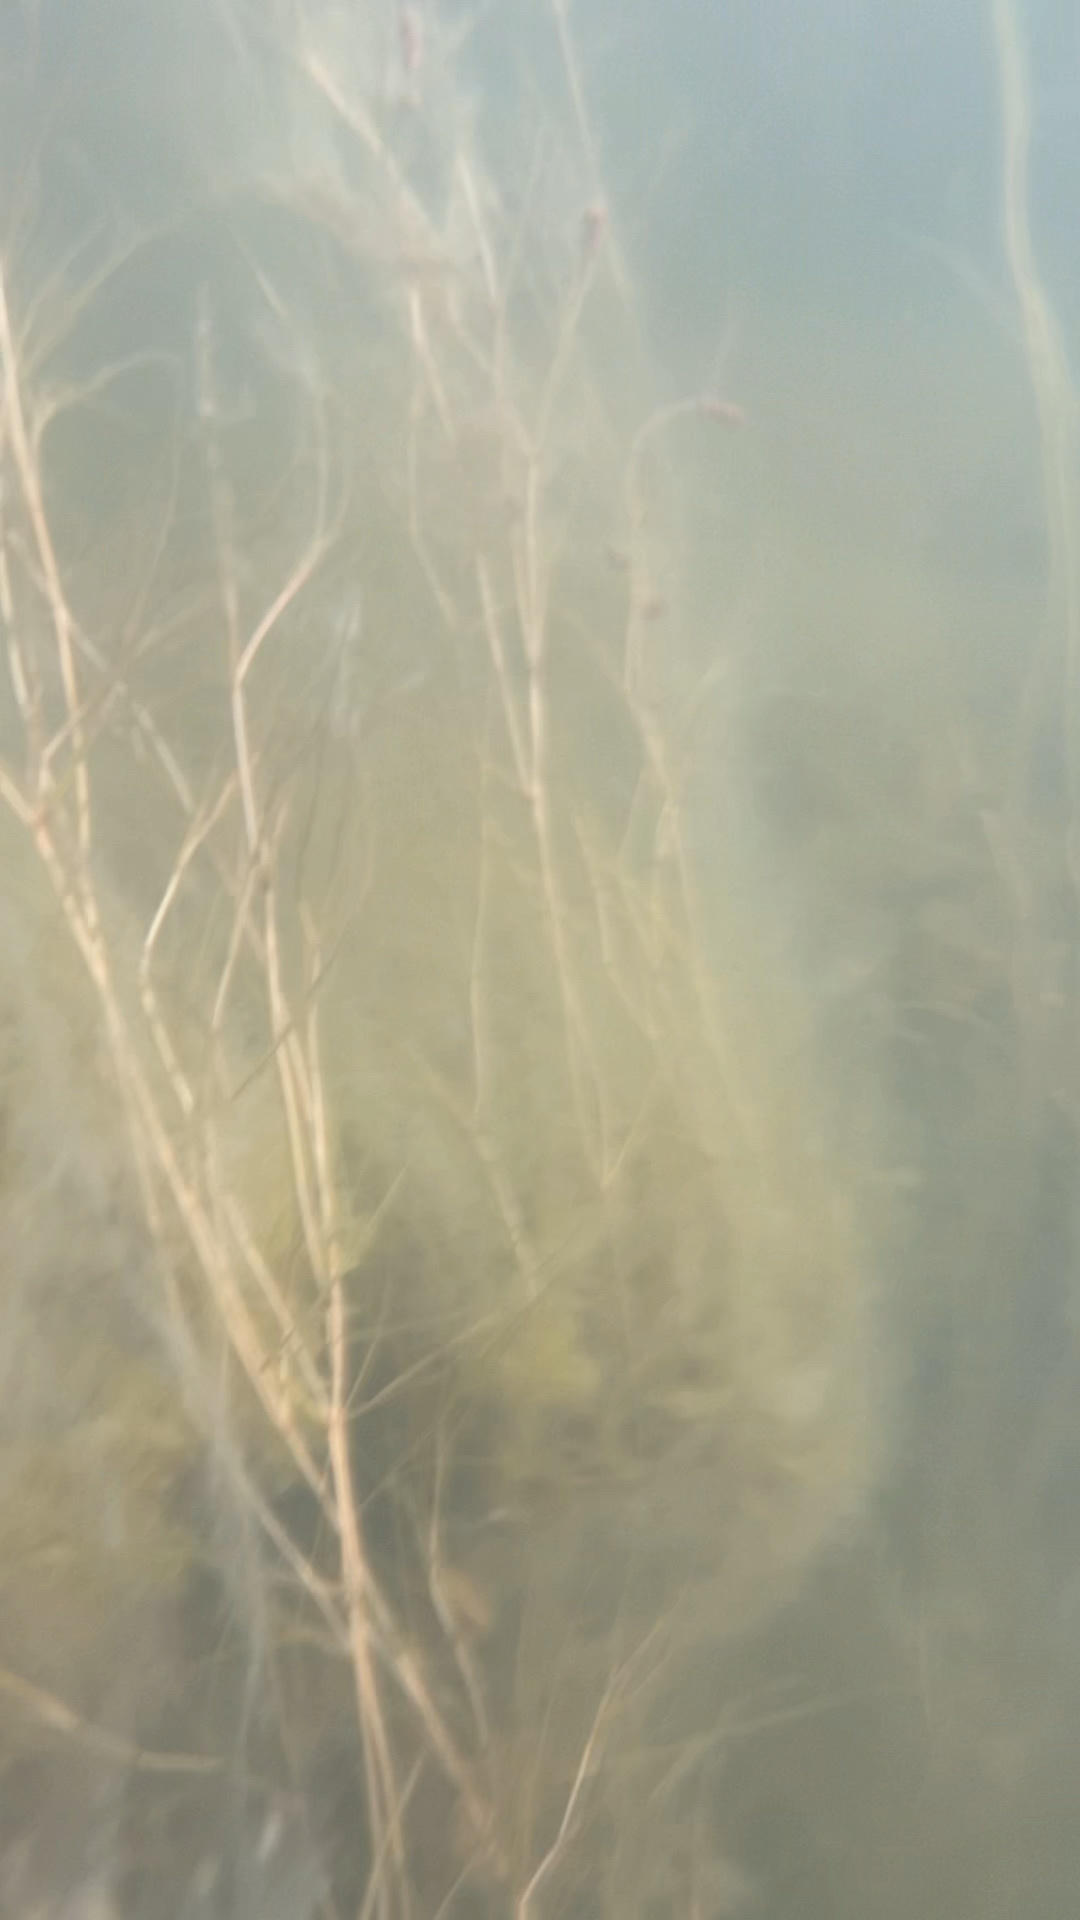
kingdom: Plantae
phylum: Tracheophyta
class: Liliopsida
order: Alismatales
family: Potamogetonaceae
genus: Stuckenia
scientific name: Stuckenia pectinata
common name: Sago pondweed
